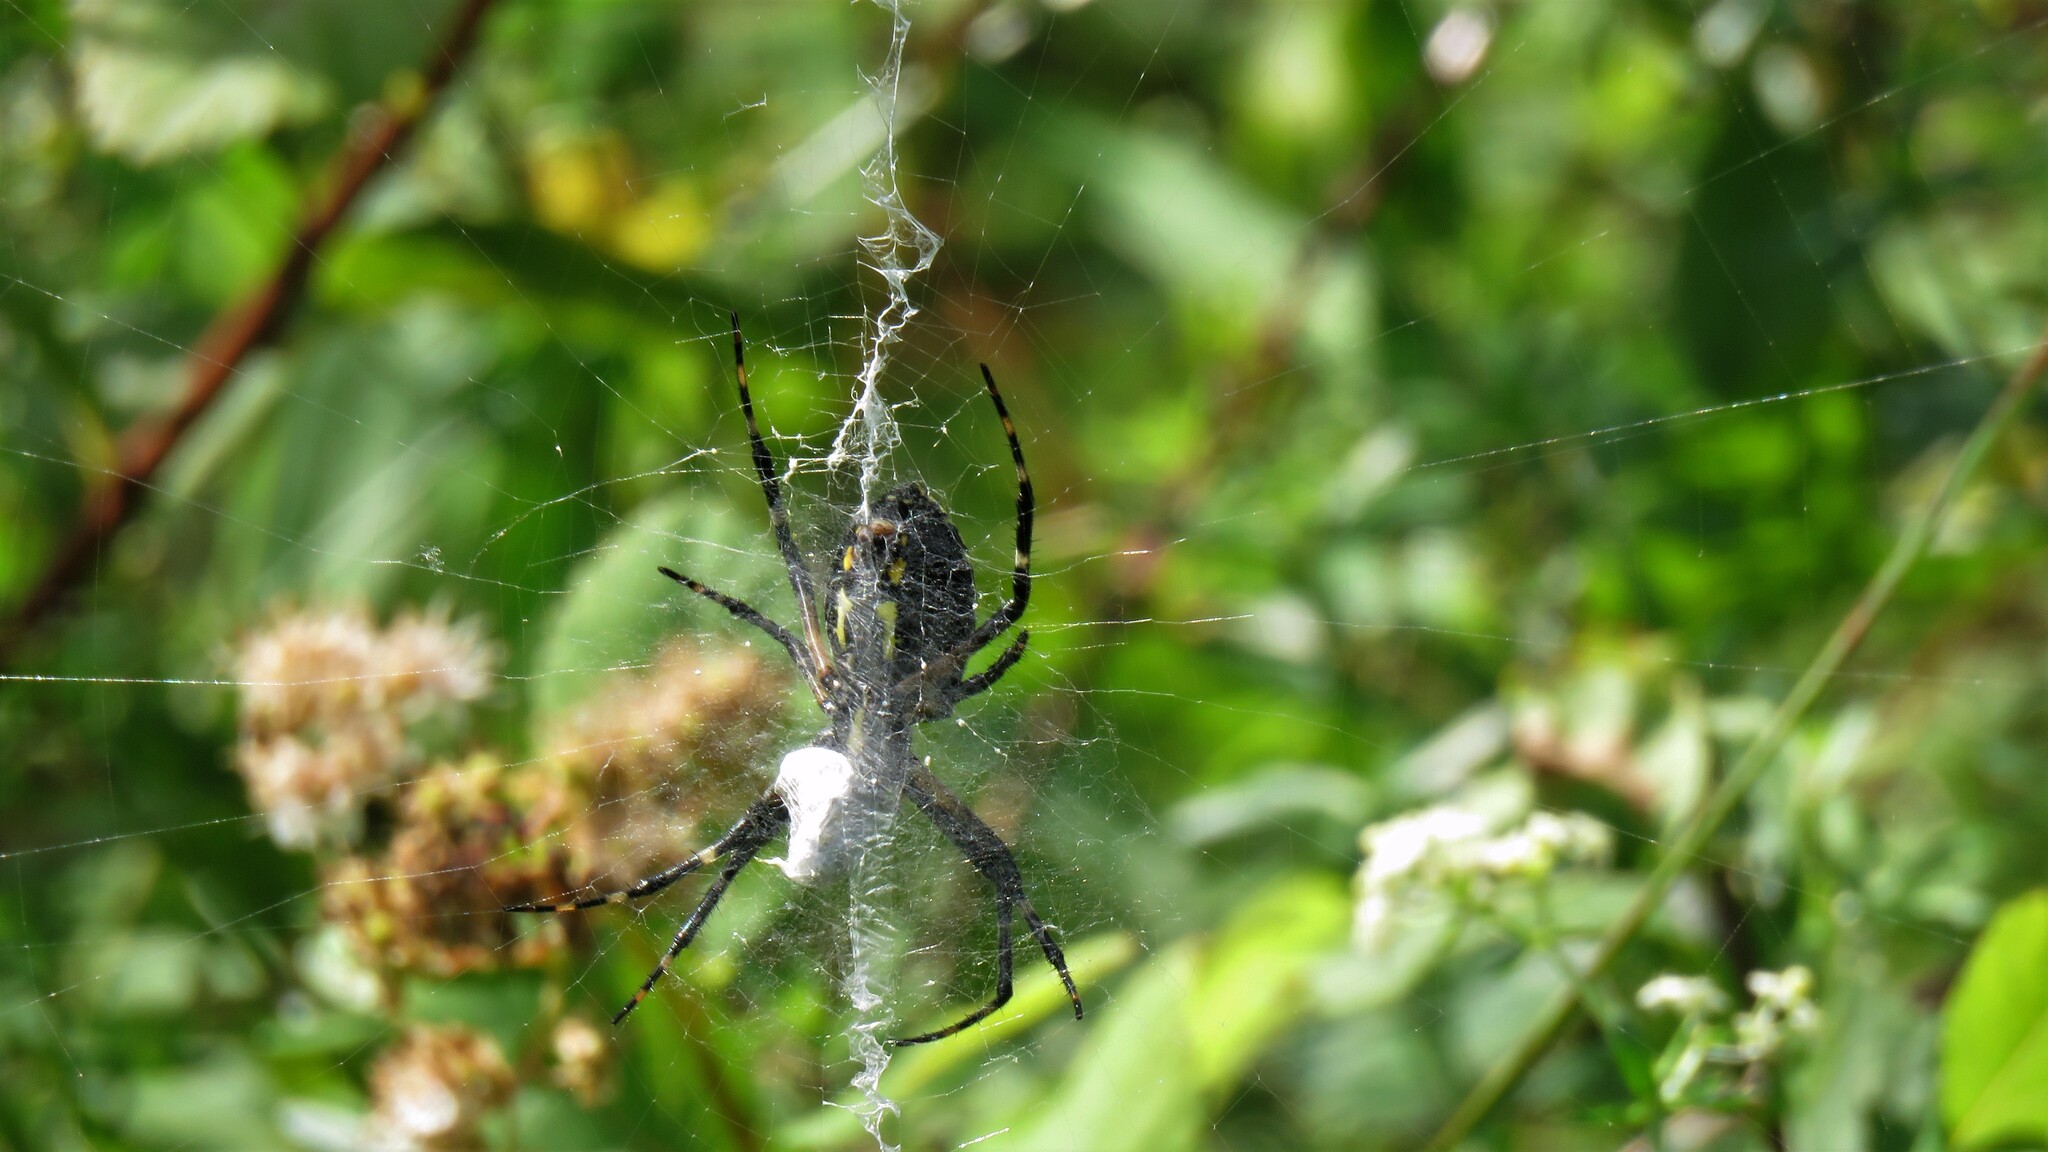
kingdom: Animalia
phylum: Arthropoda
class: Arachnida
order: Araneae
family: Araneidae
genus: Argiope
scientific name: Argiope aurantia
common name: Orb weavers
